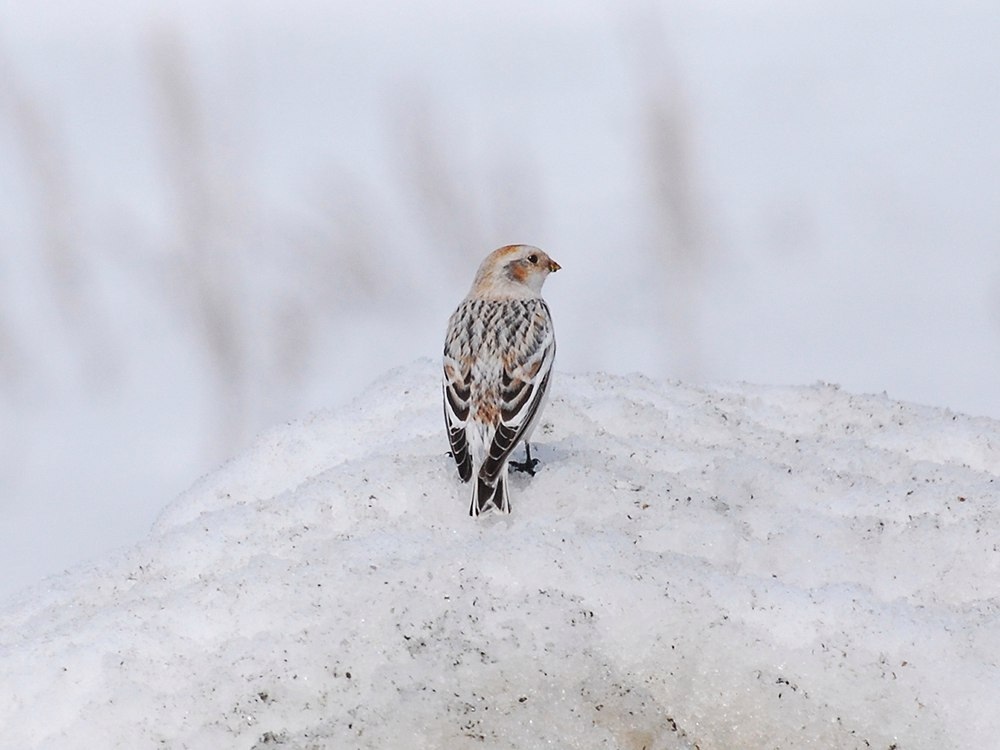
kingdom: Animalia
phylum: Chordata
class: Aves
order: Passeriformes
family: Calcariidae
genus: Plectrophenax
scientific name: Plectrophenax nivalis
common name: Snow bunting
